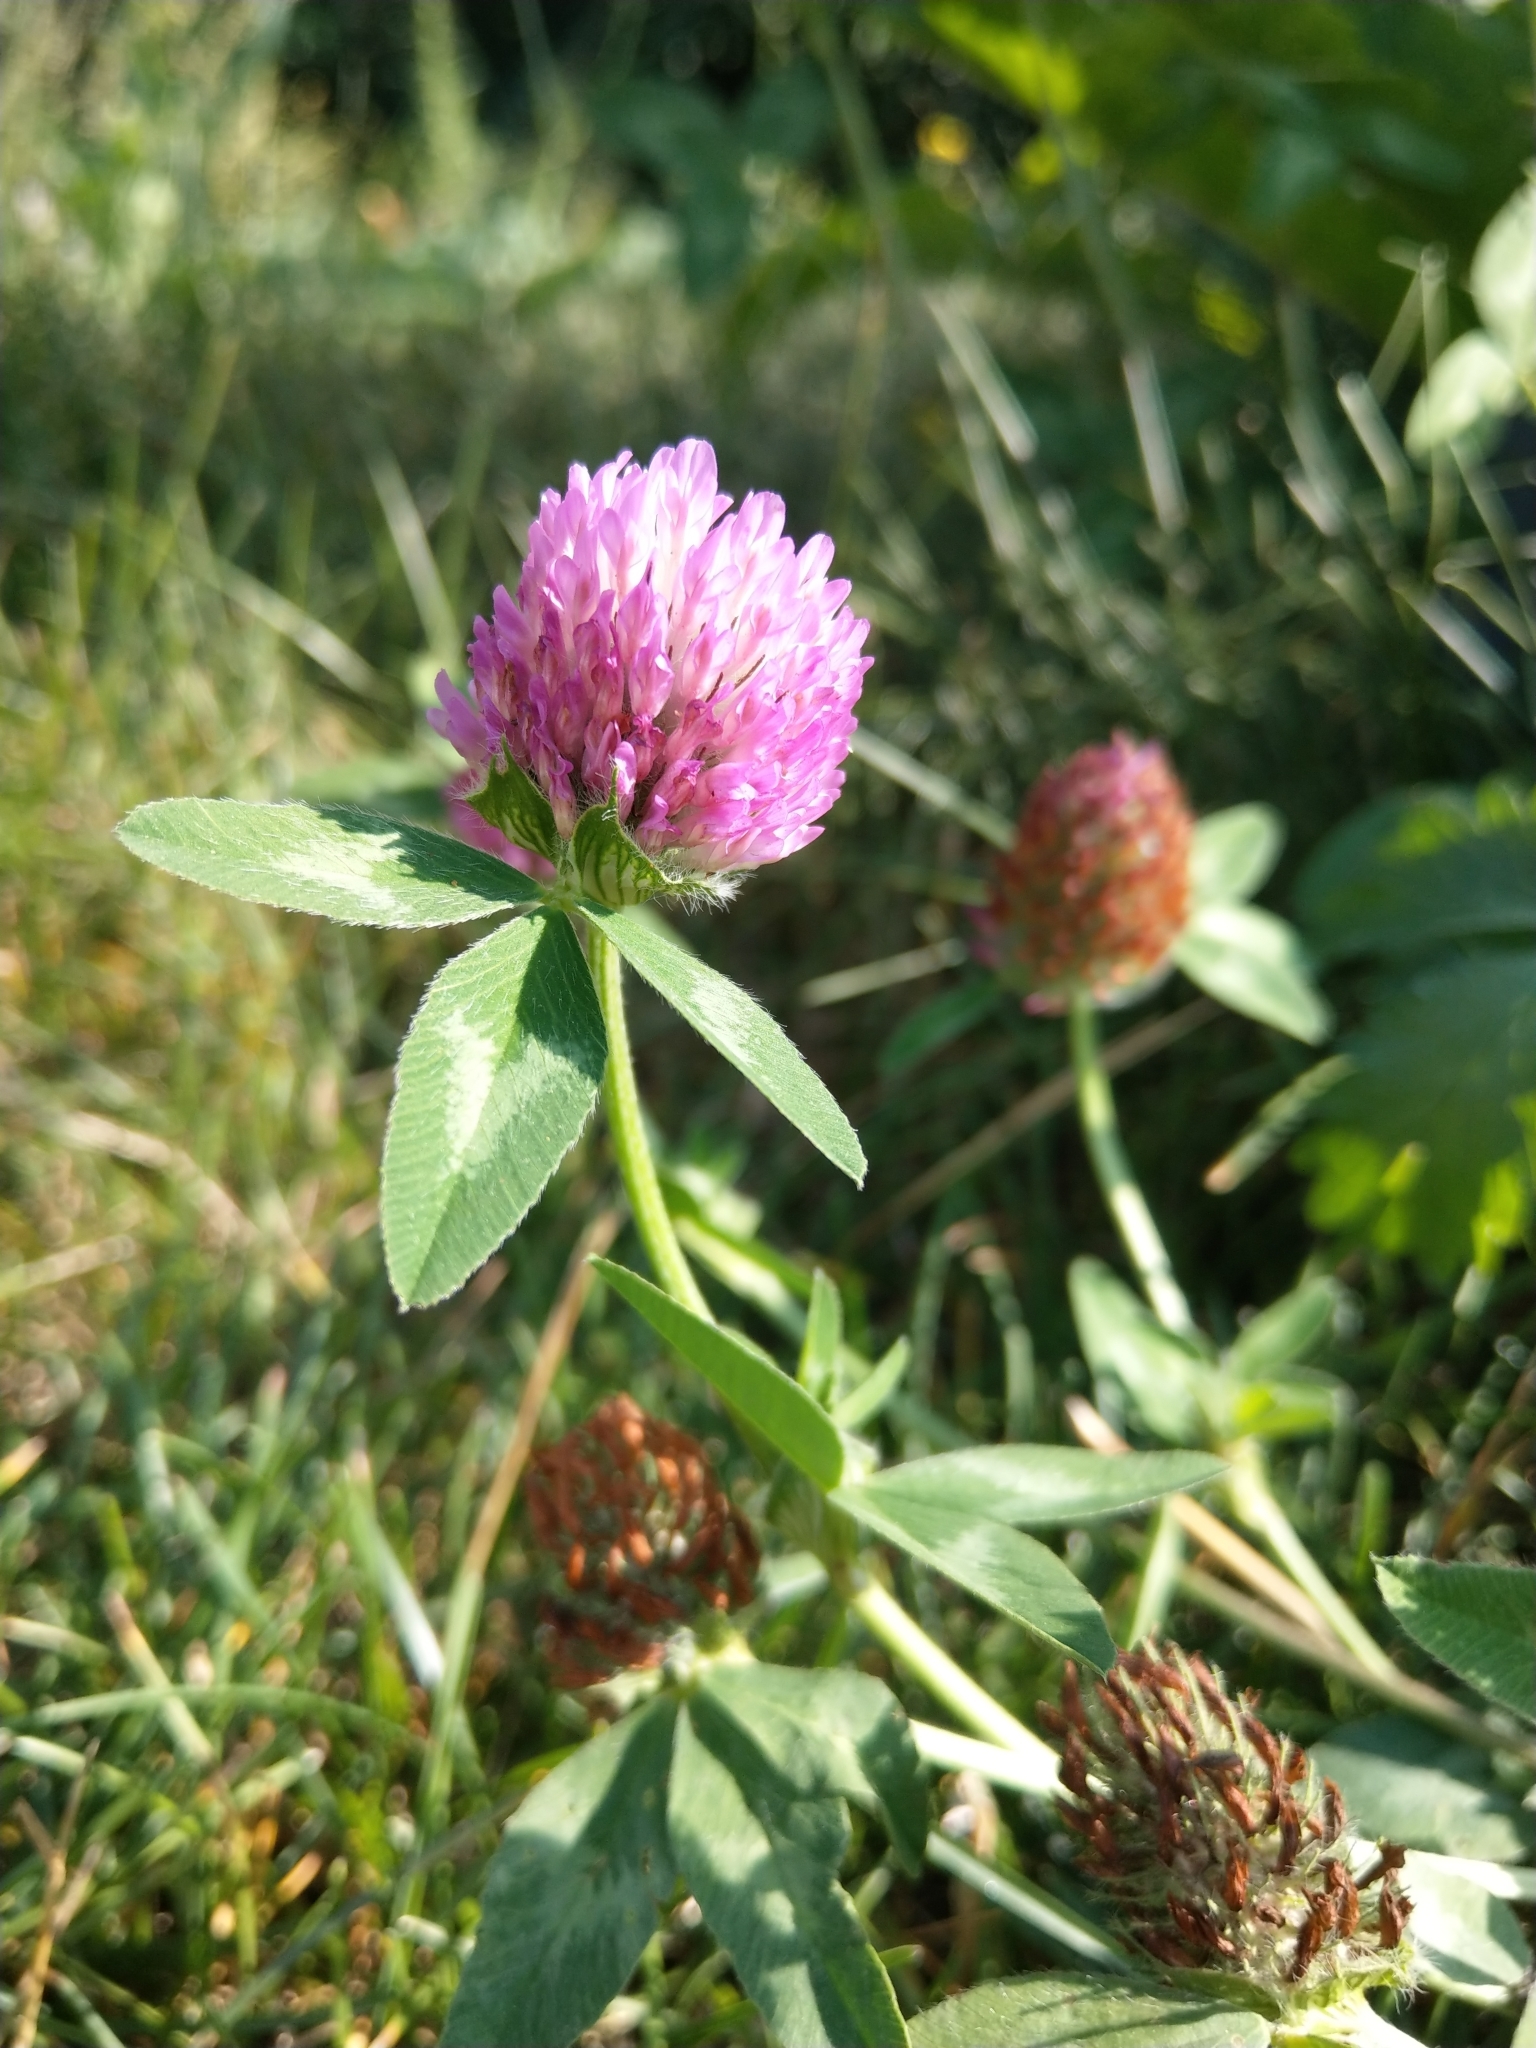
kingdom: Plantae
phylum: Tracheophyta
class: Magnoliopsida
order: Fabales
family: Fabaceae
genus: Trifolium
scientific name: Trifolium pratense
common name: Red clover
